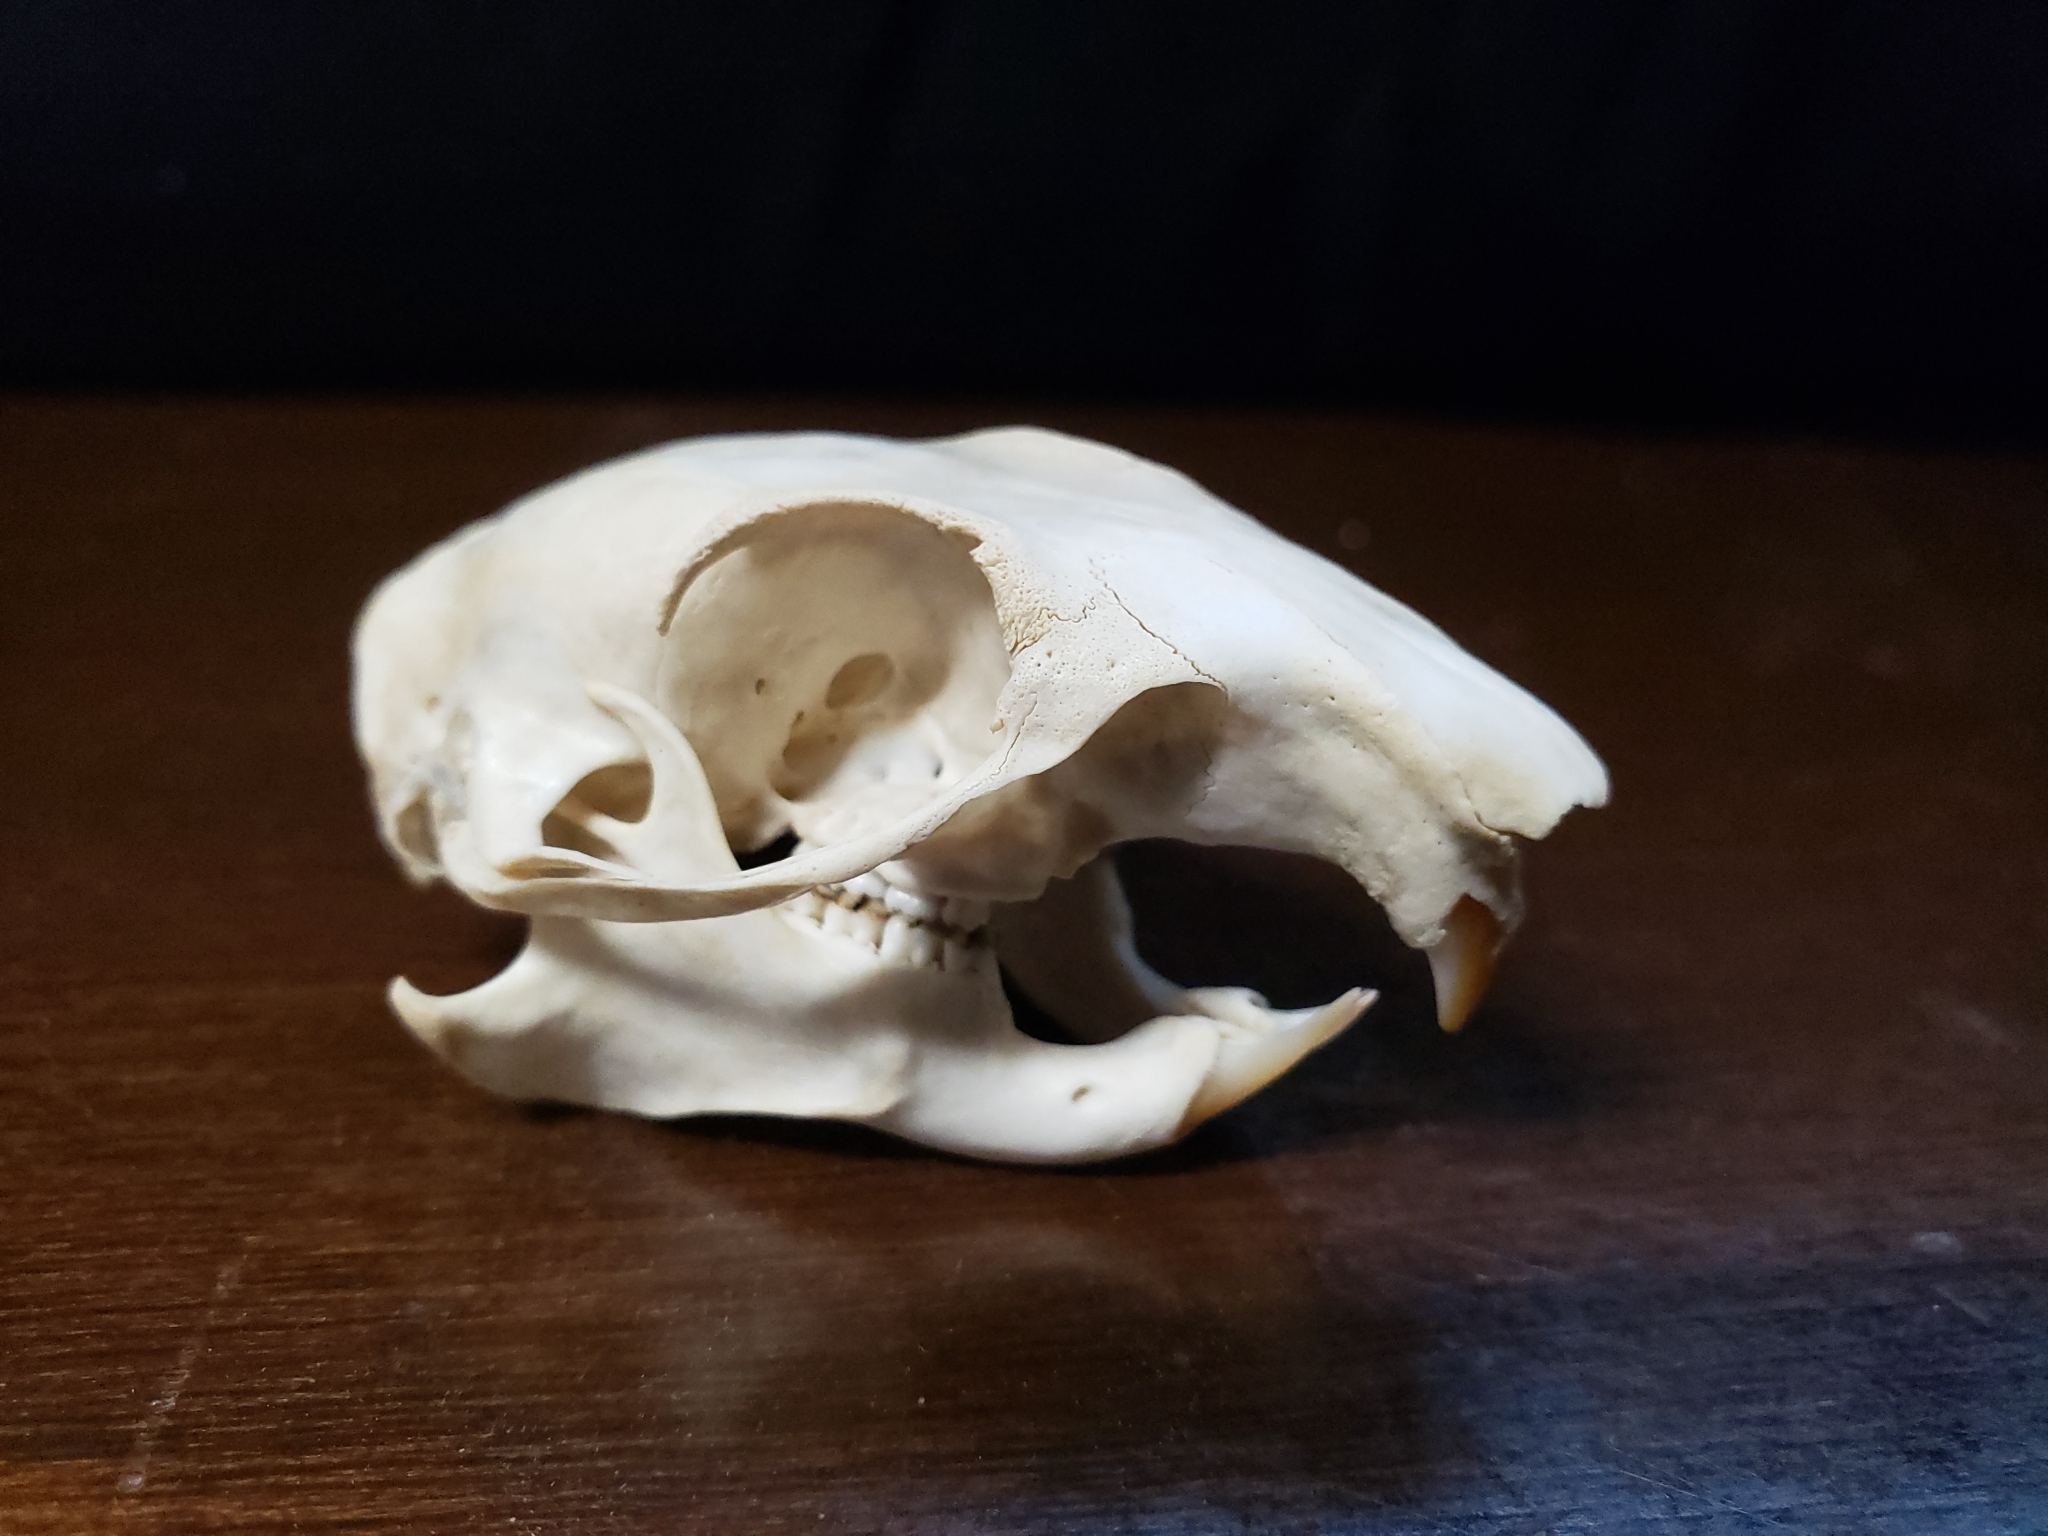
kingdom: Animalia
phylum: Chordata
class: Mammalia
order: Rodentia
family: Sciuridae
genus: Otospermophilus
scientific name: Otospermophilus beecheyi
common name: California ground squirrel
